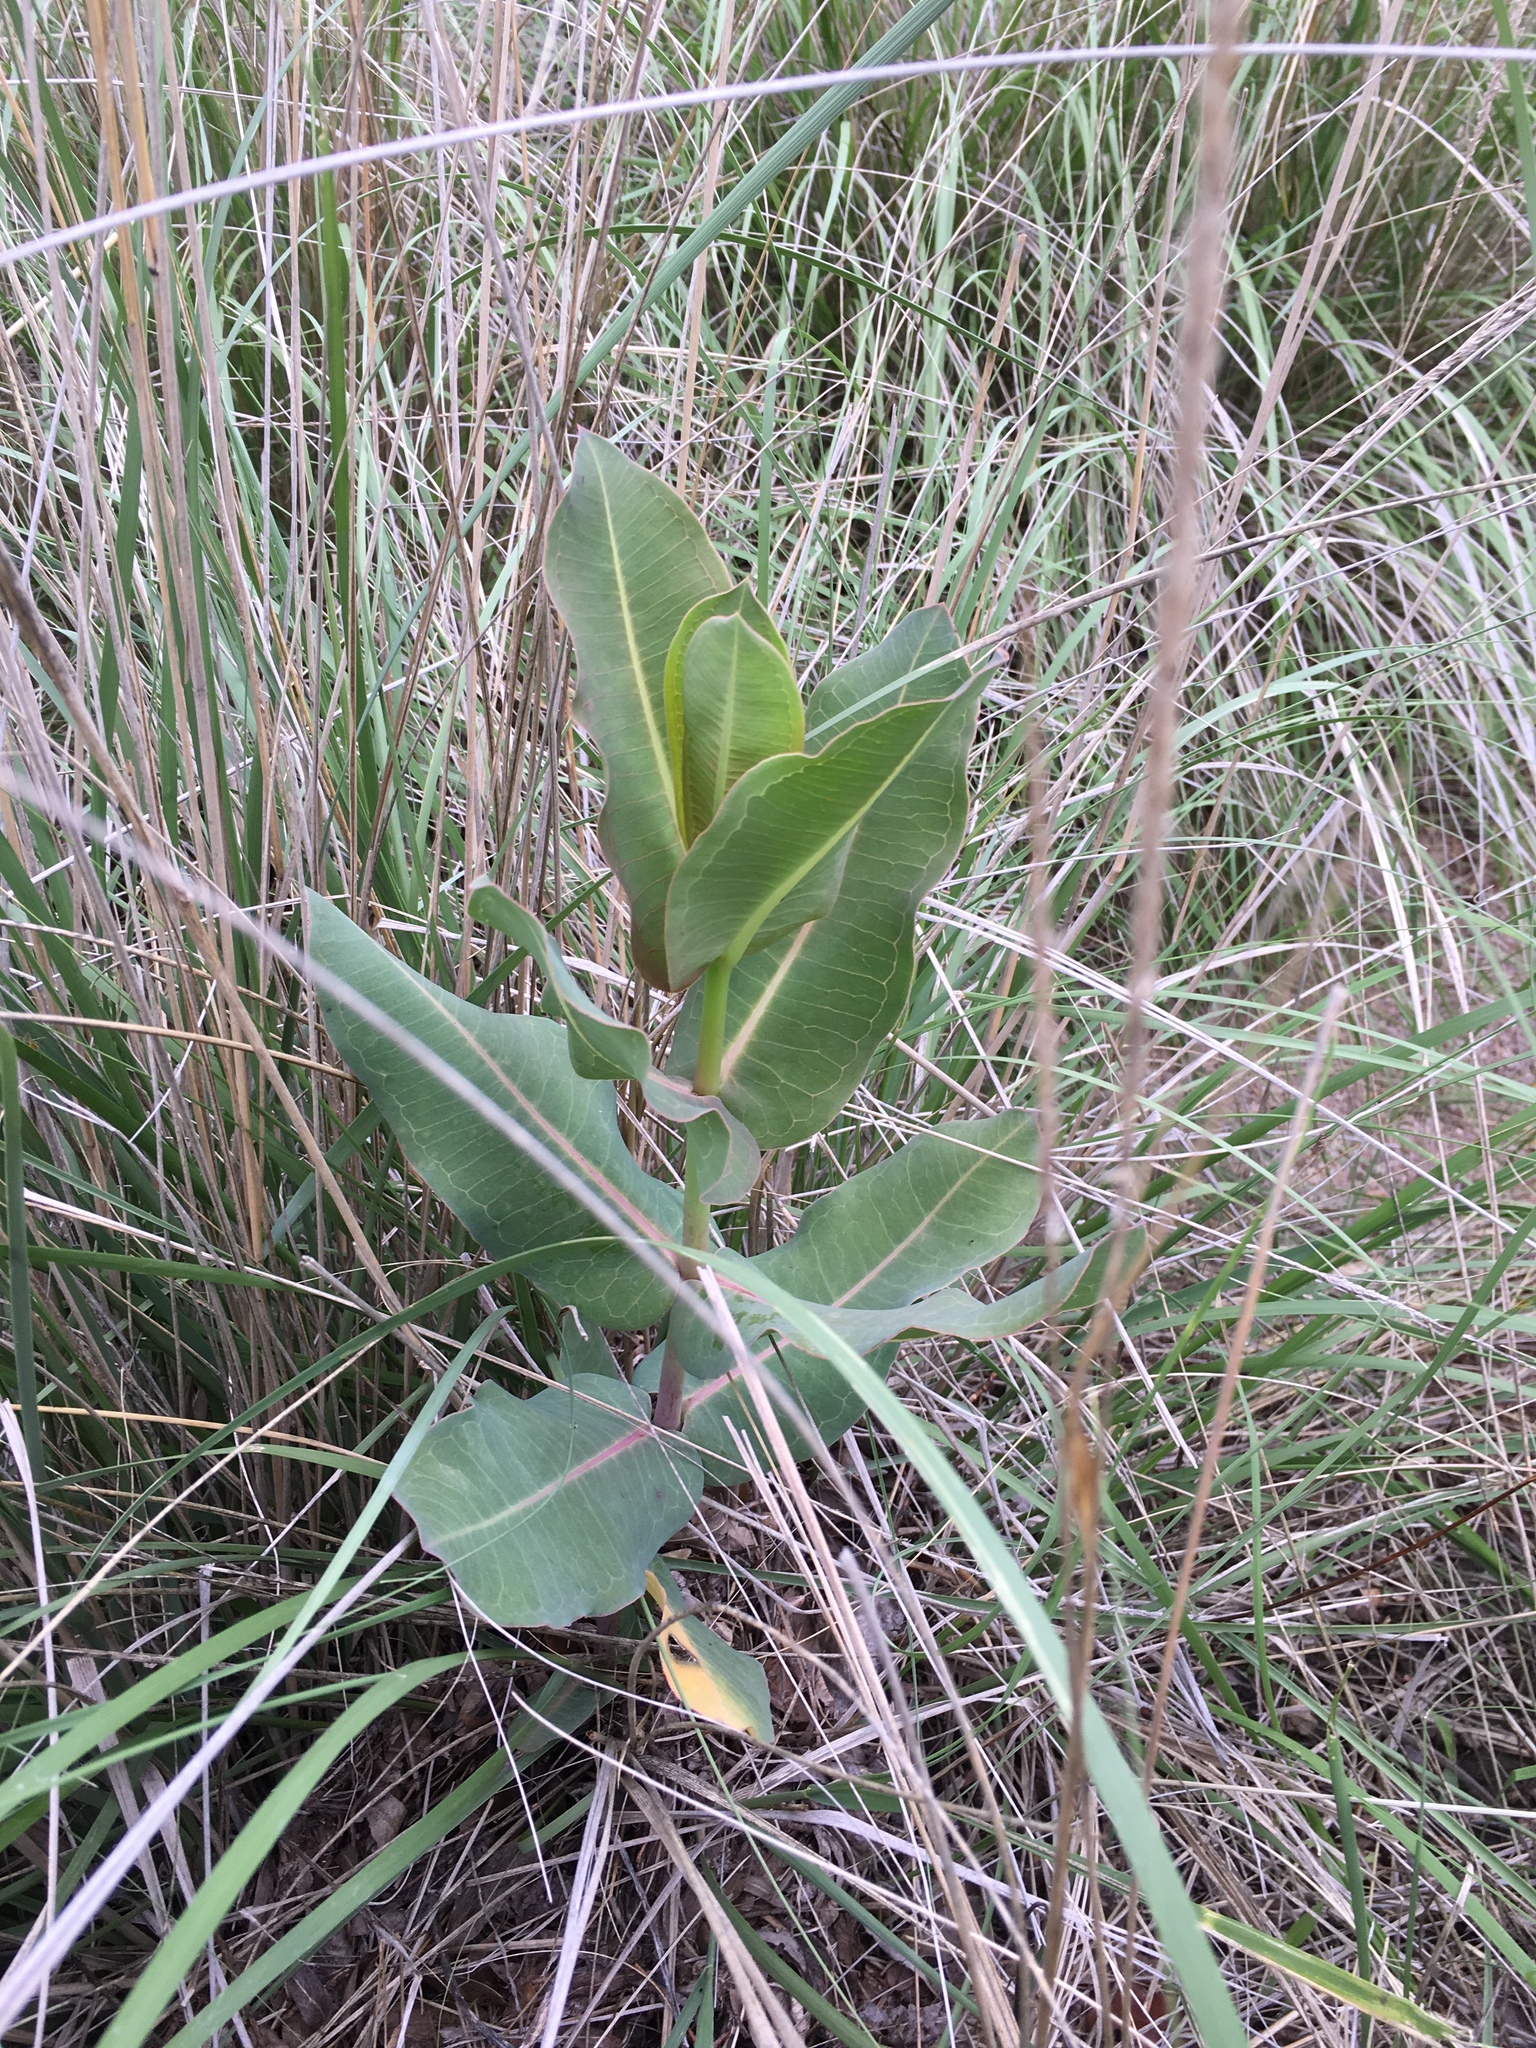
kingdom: Plantae
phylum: Tracheophyta
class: Magnoliopsida
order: Gentianales
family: Apocynaceae
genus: Asclepias
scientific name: Asclepias elata
